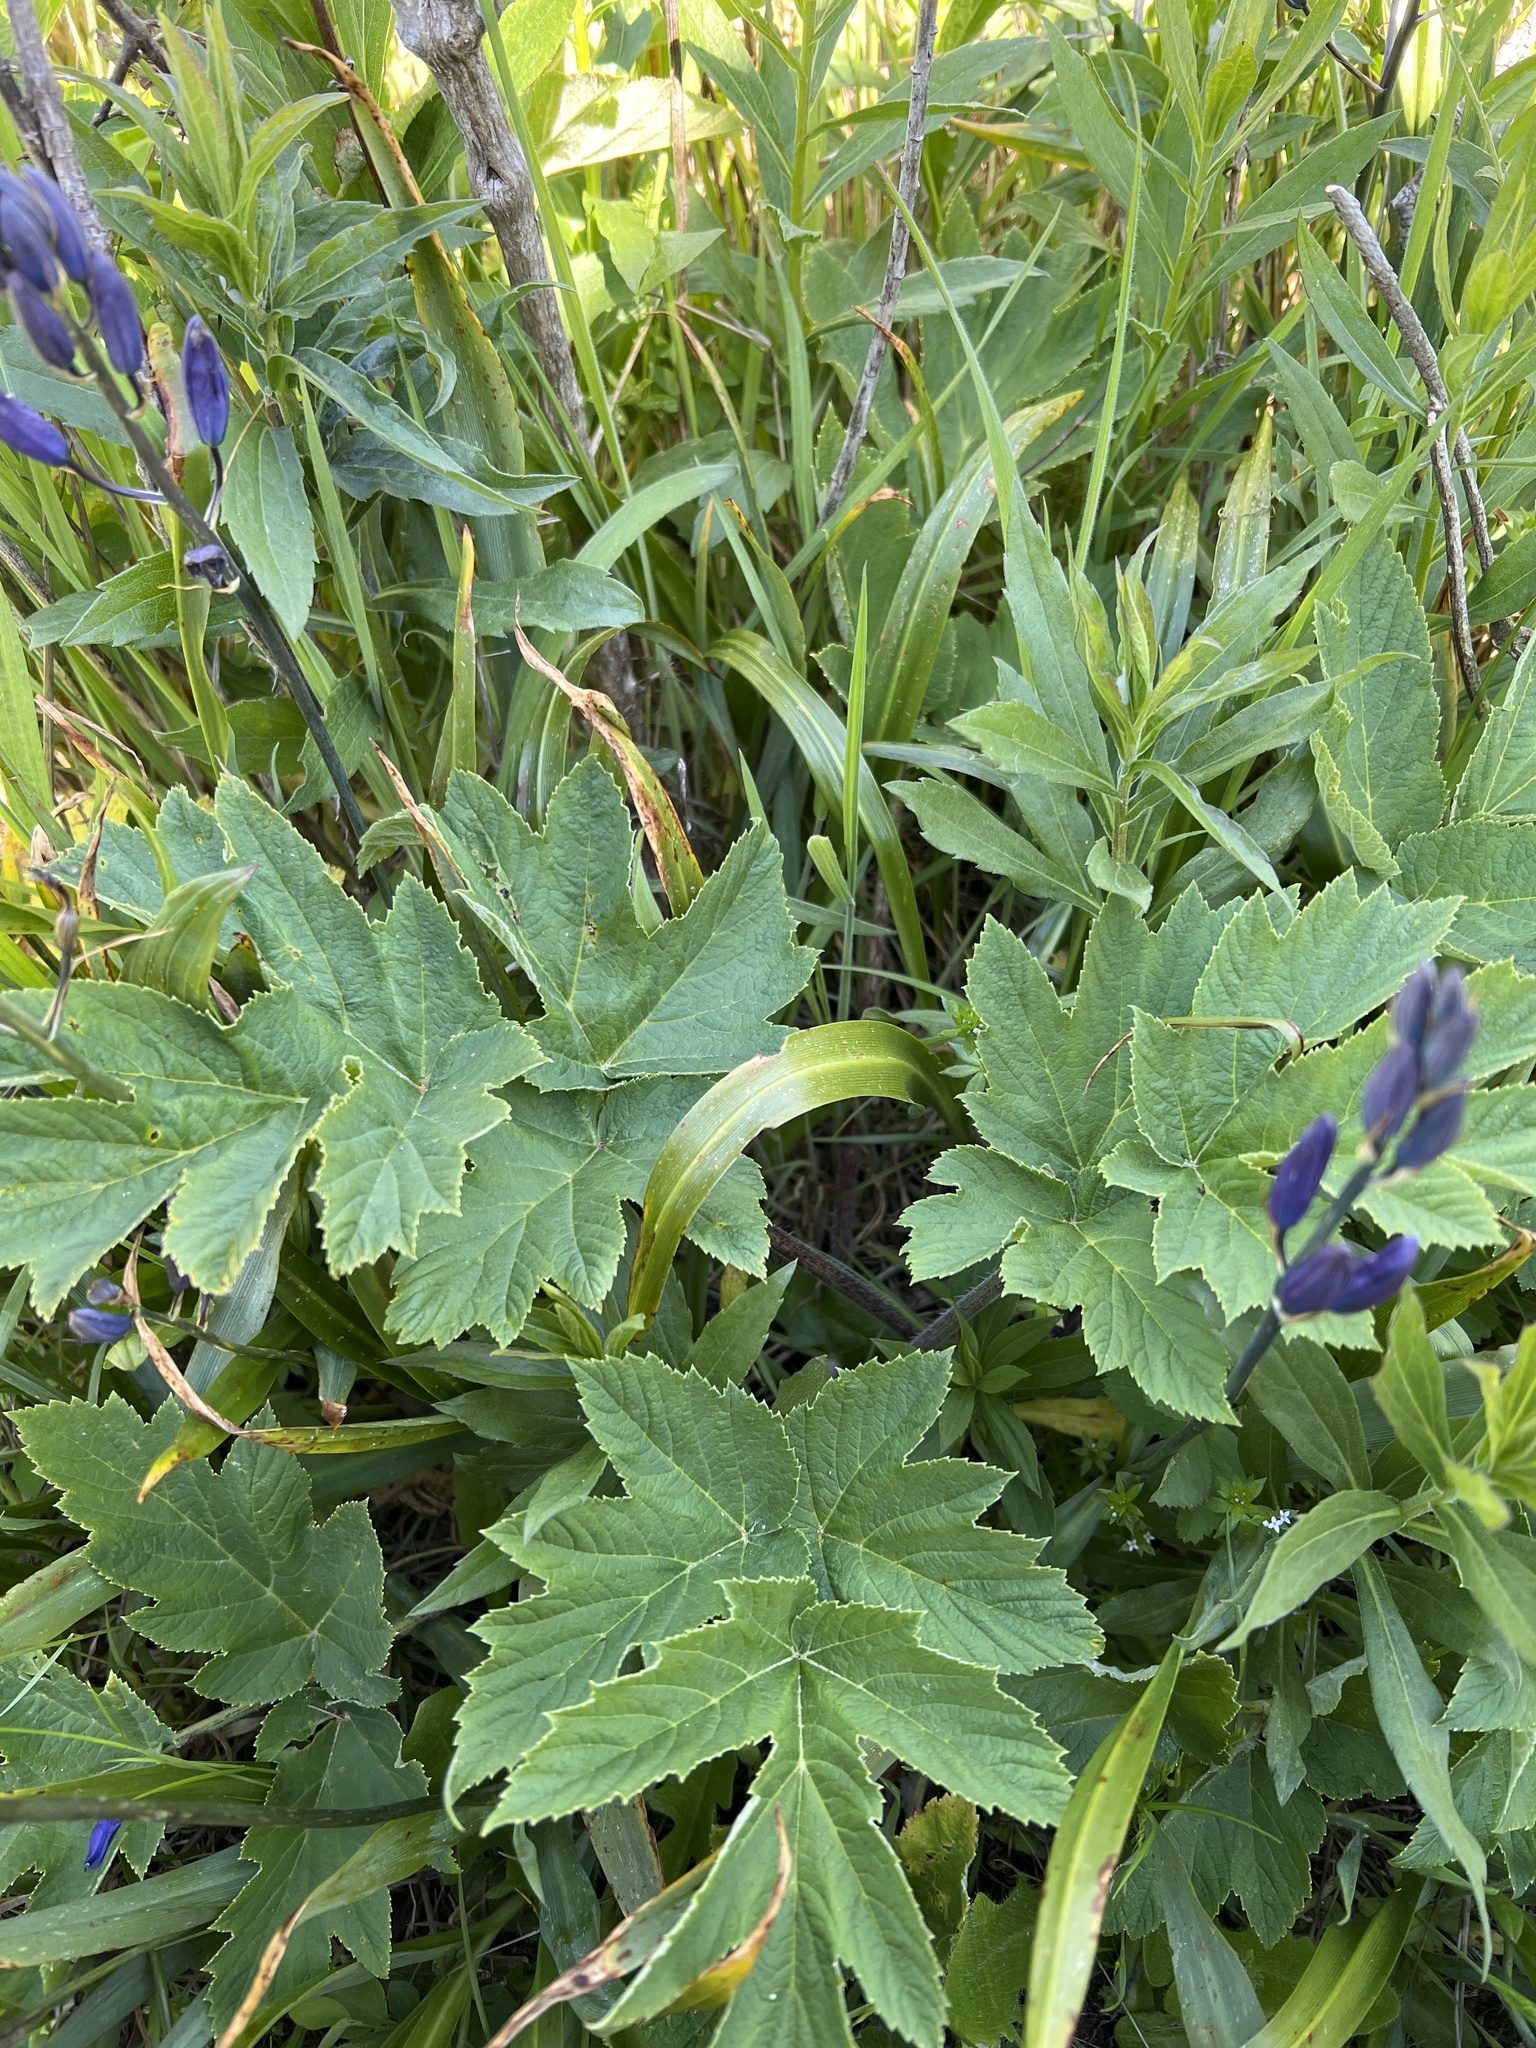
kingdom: Plantae
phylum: Tracheophyta
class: Magnoliopsida
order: Apiales
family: Apiaceae
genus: Heracleum
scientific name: Heracleum maximum
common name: American cow parsnip
